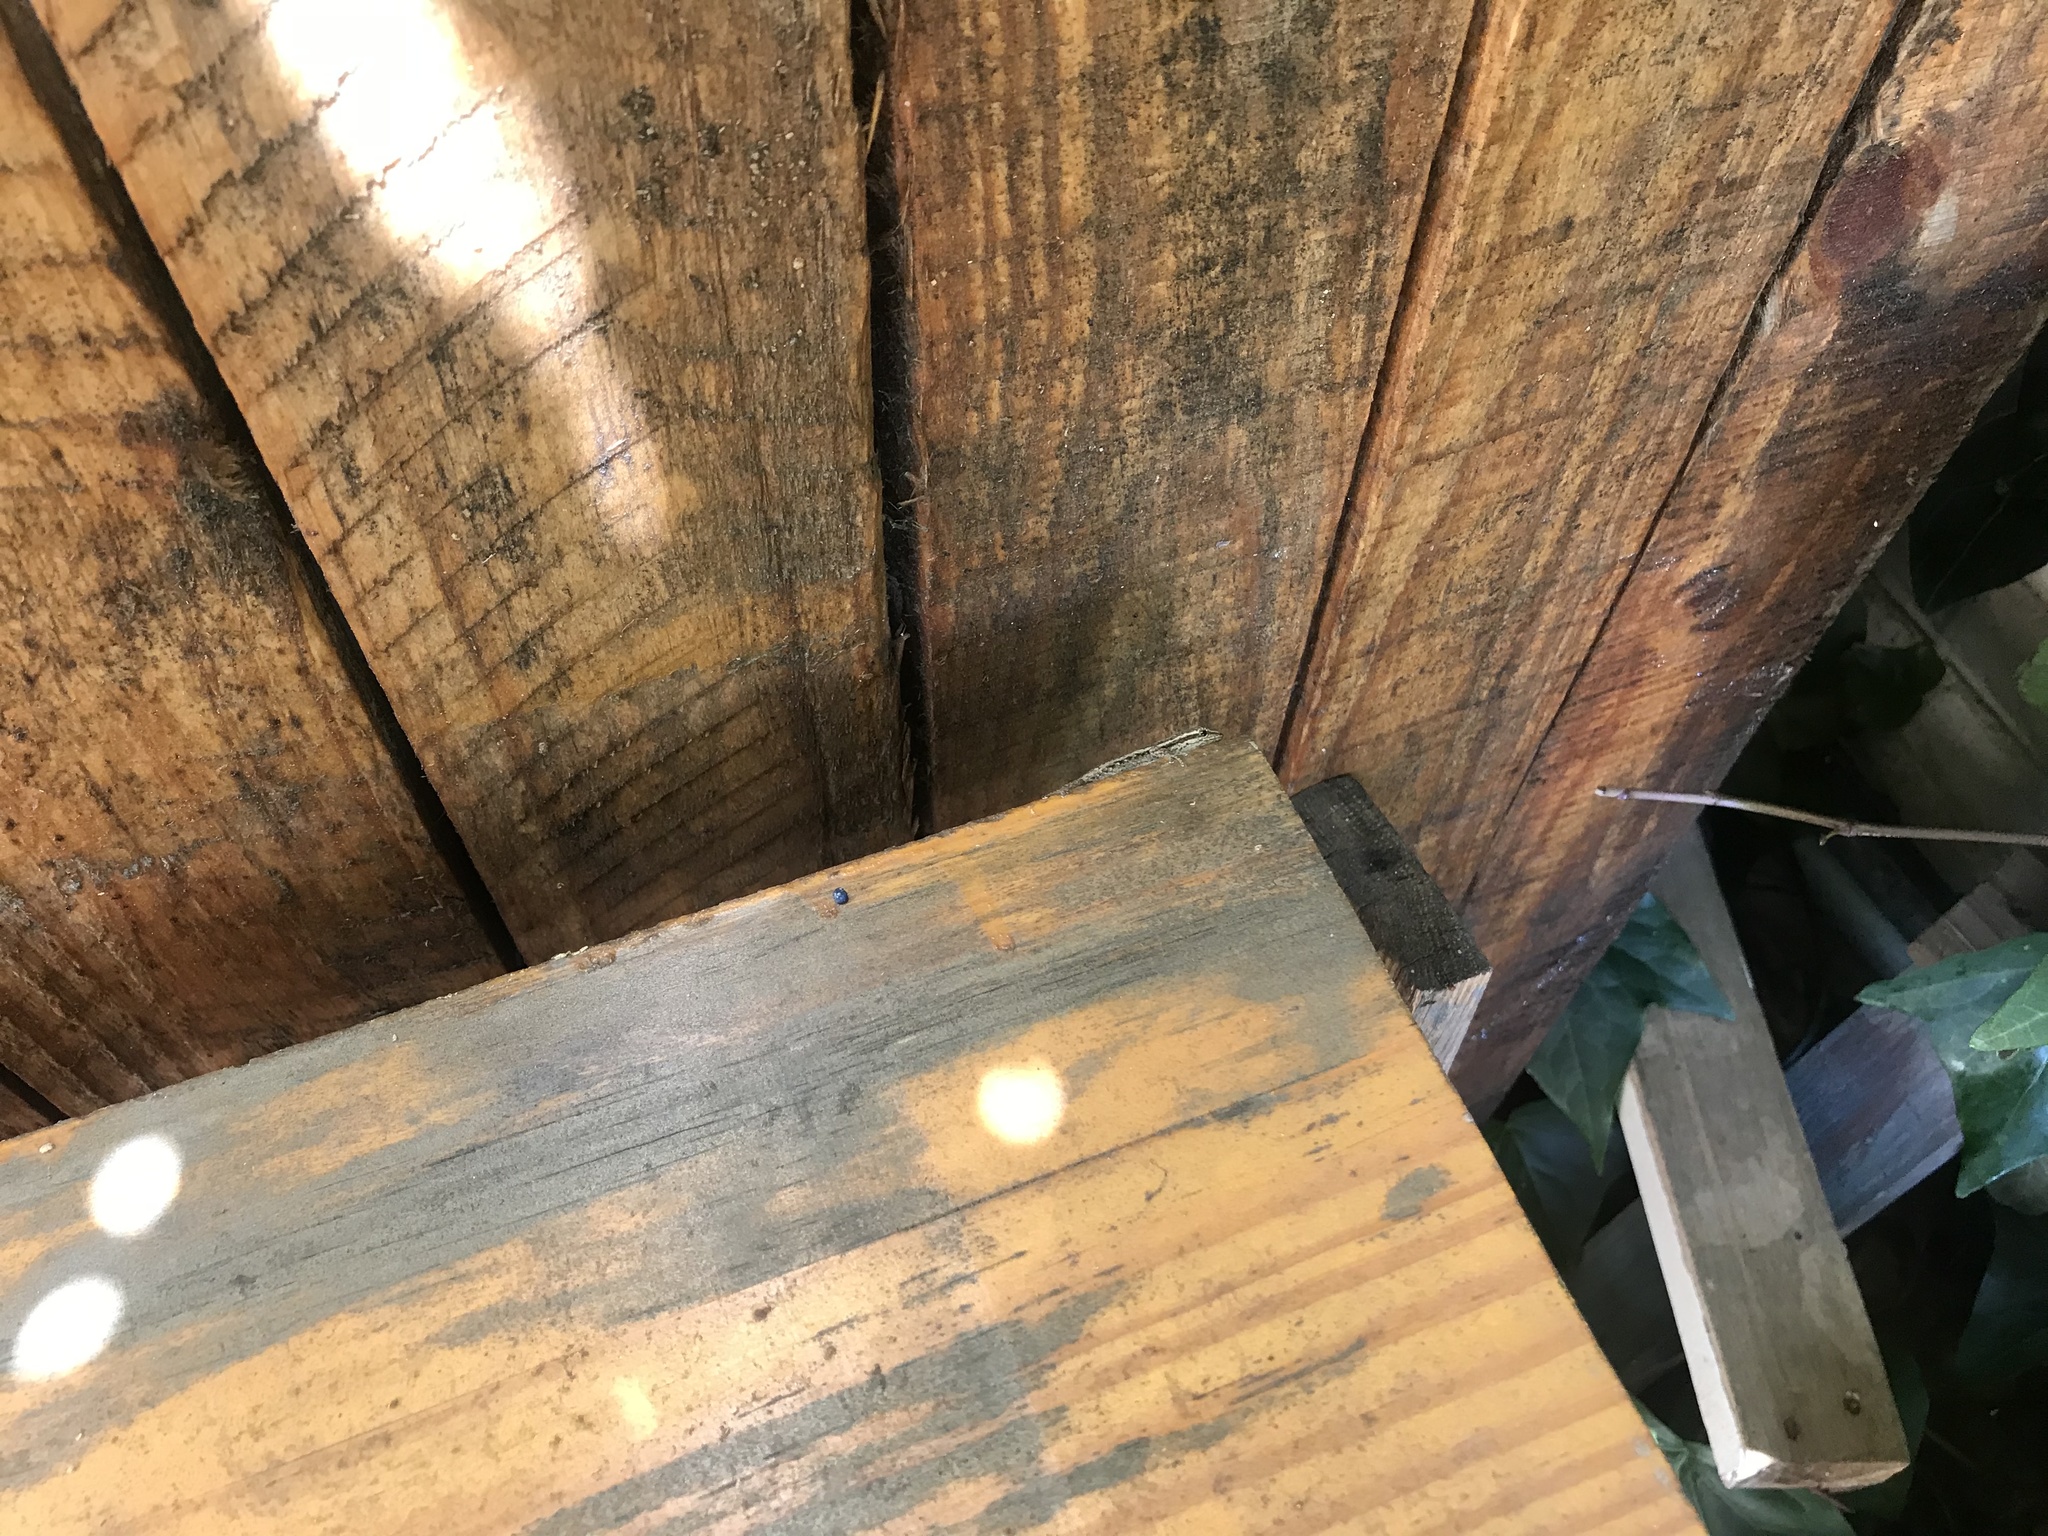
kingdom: Animalia
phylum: Chordata
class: Squamata
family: Gekkonidae
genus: Lygodactylus
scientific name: Lygodactylus capensis
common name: Cape dwarf gecko
